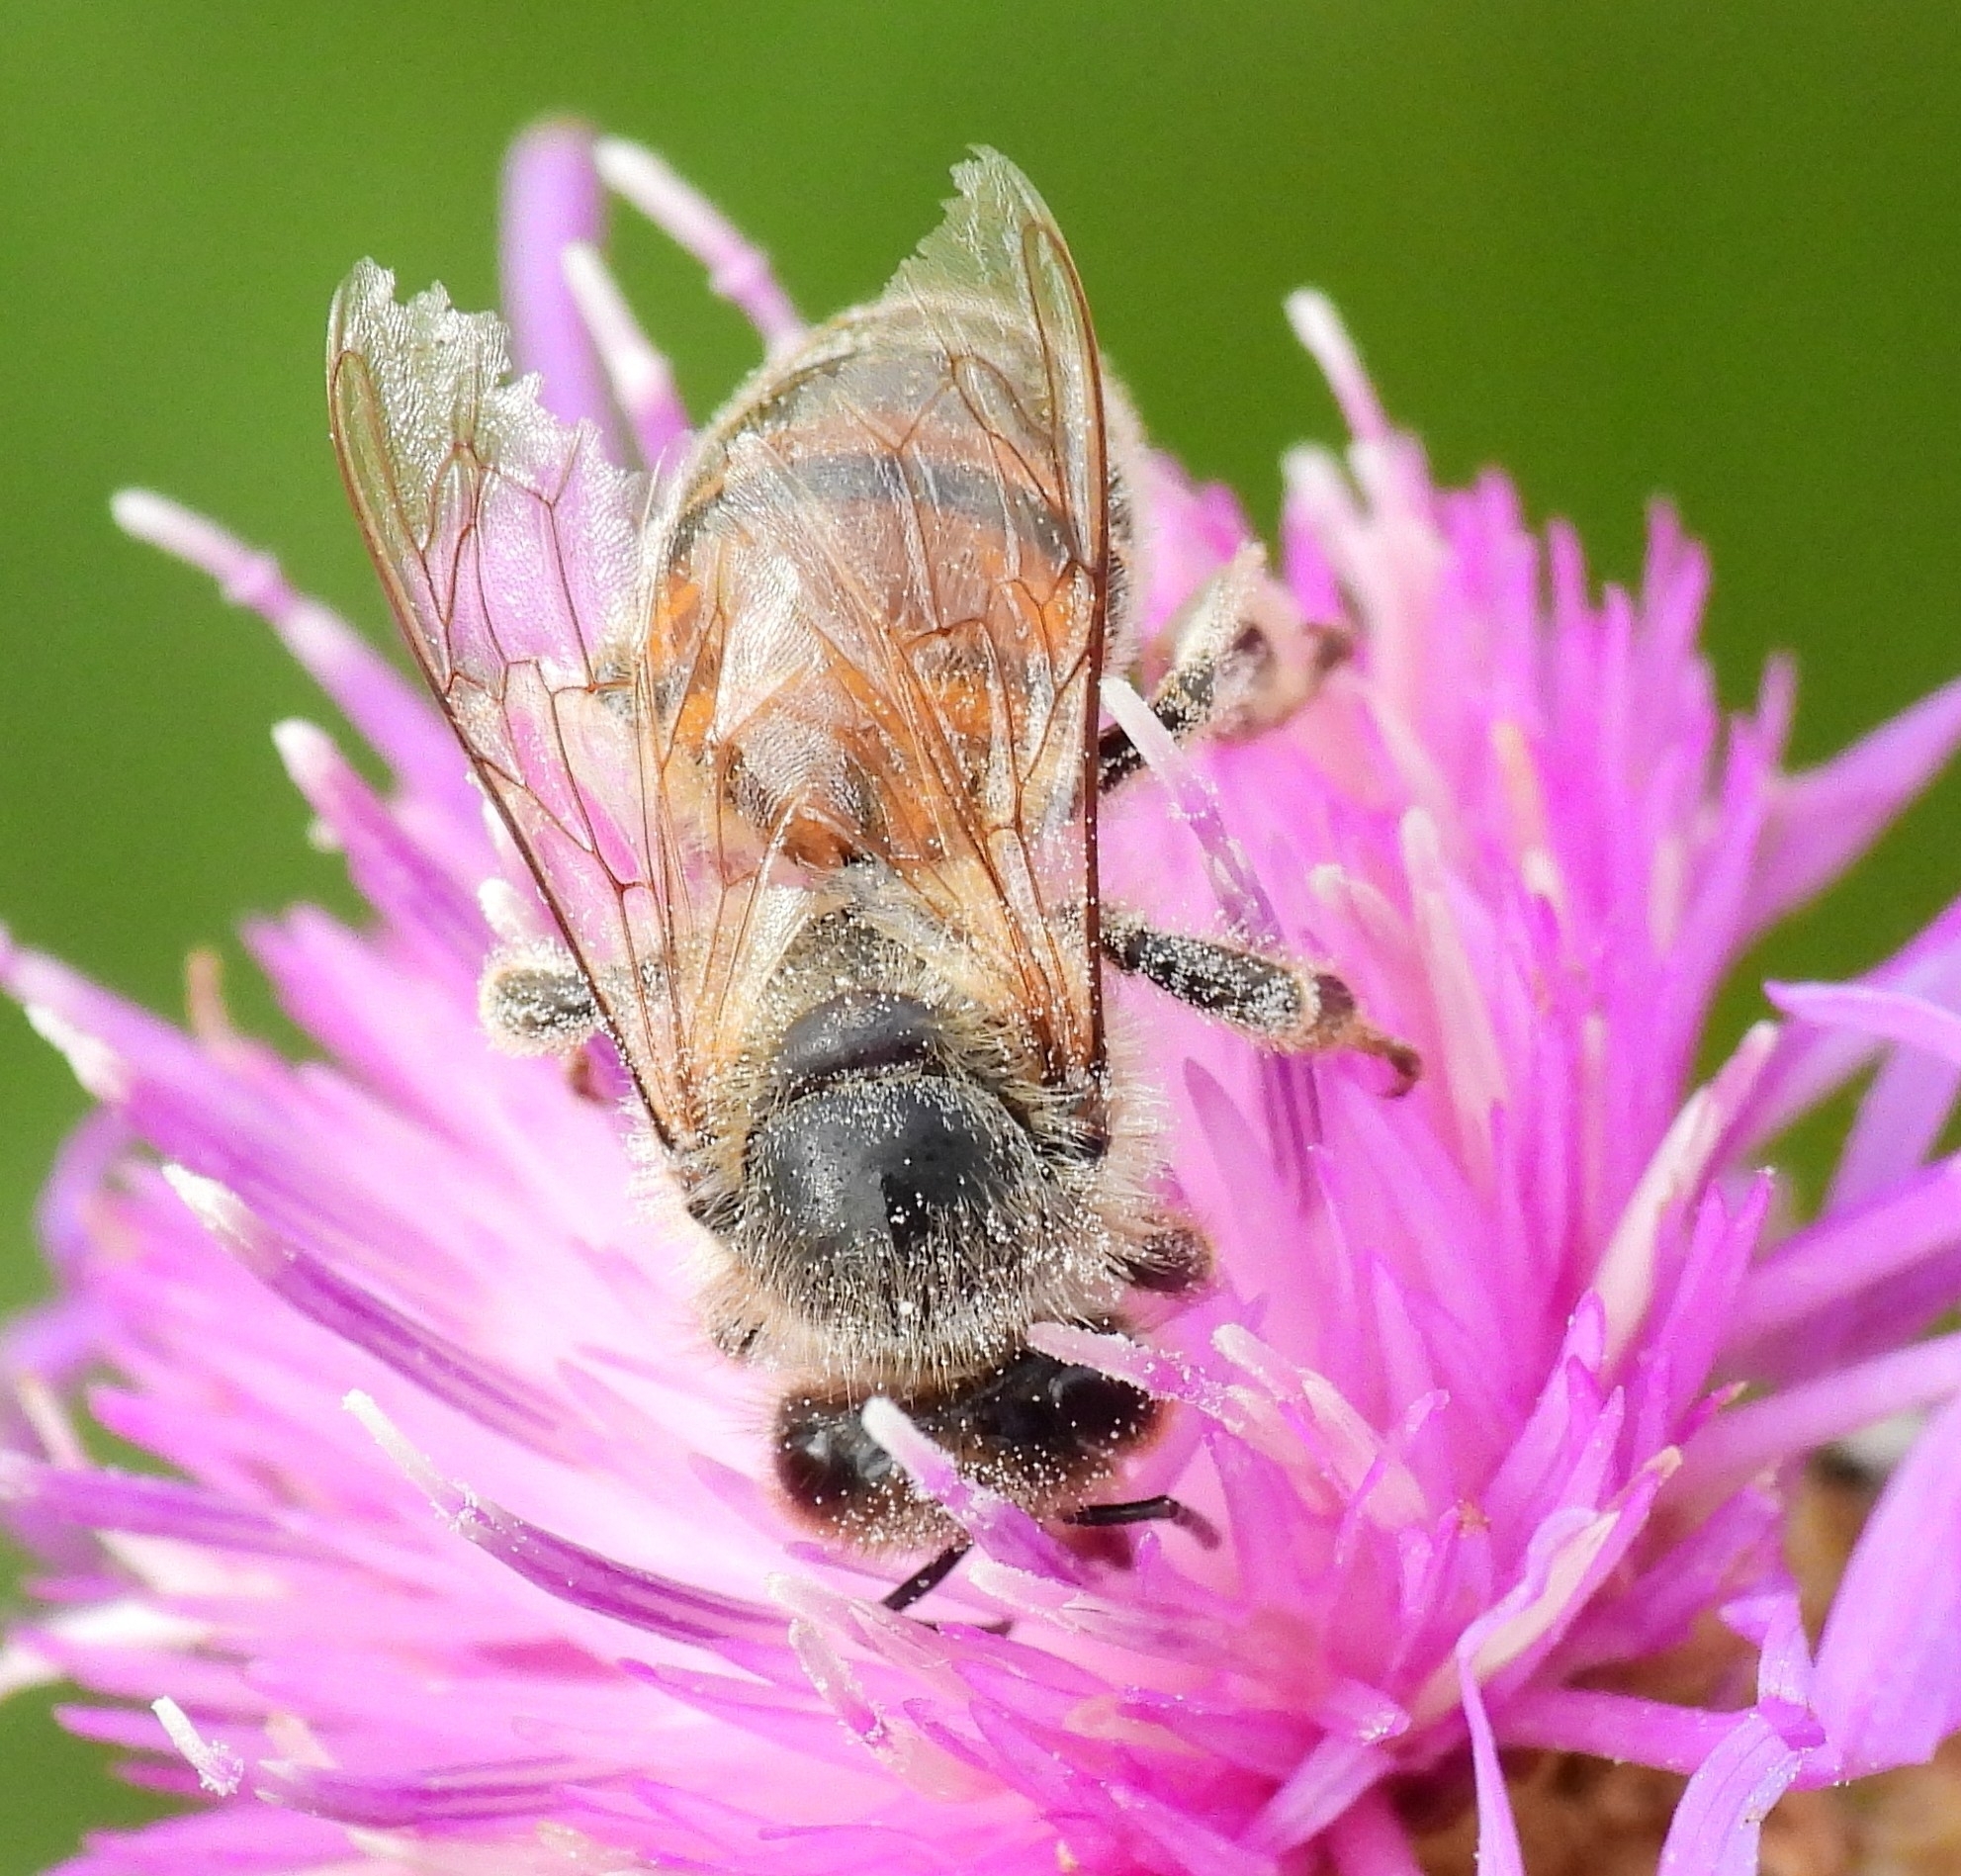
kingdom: Animalia
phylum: Arthropoda
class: Insecta
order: Hymenoptera
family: Apidae
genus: Apis
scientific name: Apis mellifera
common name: Honey bee
